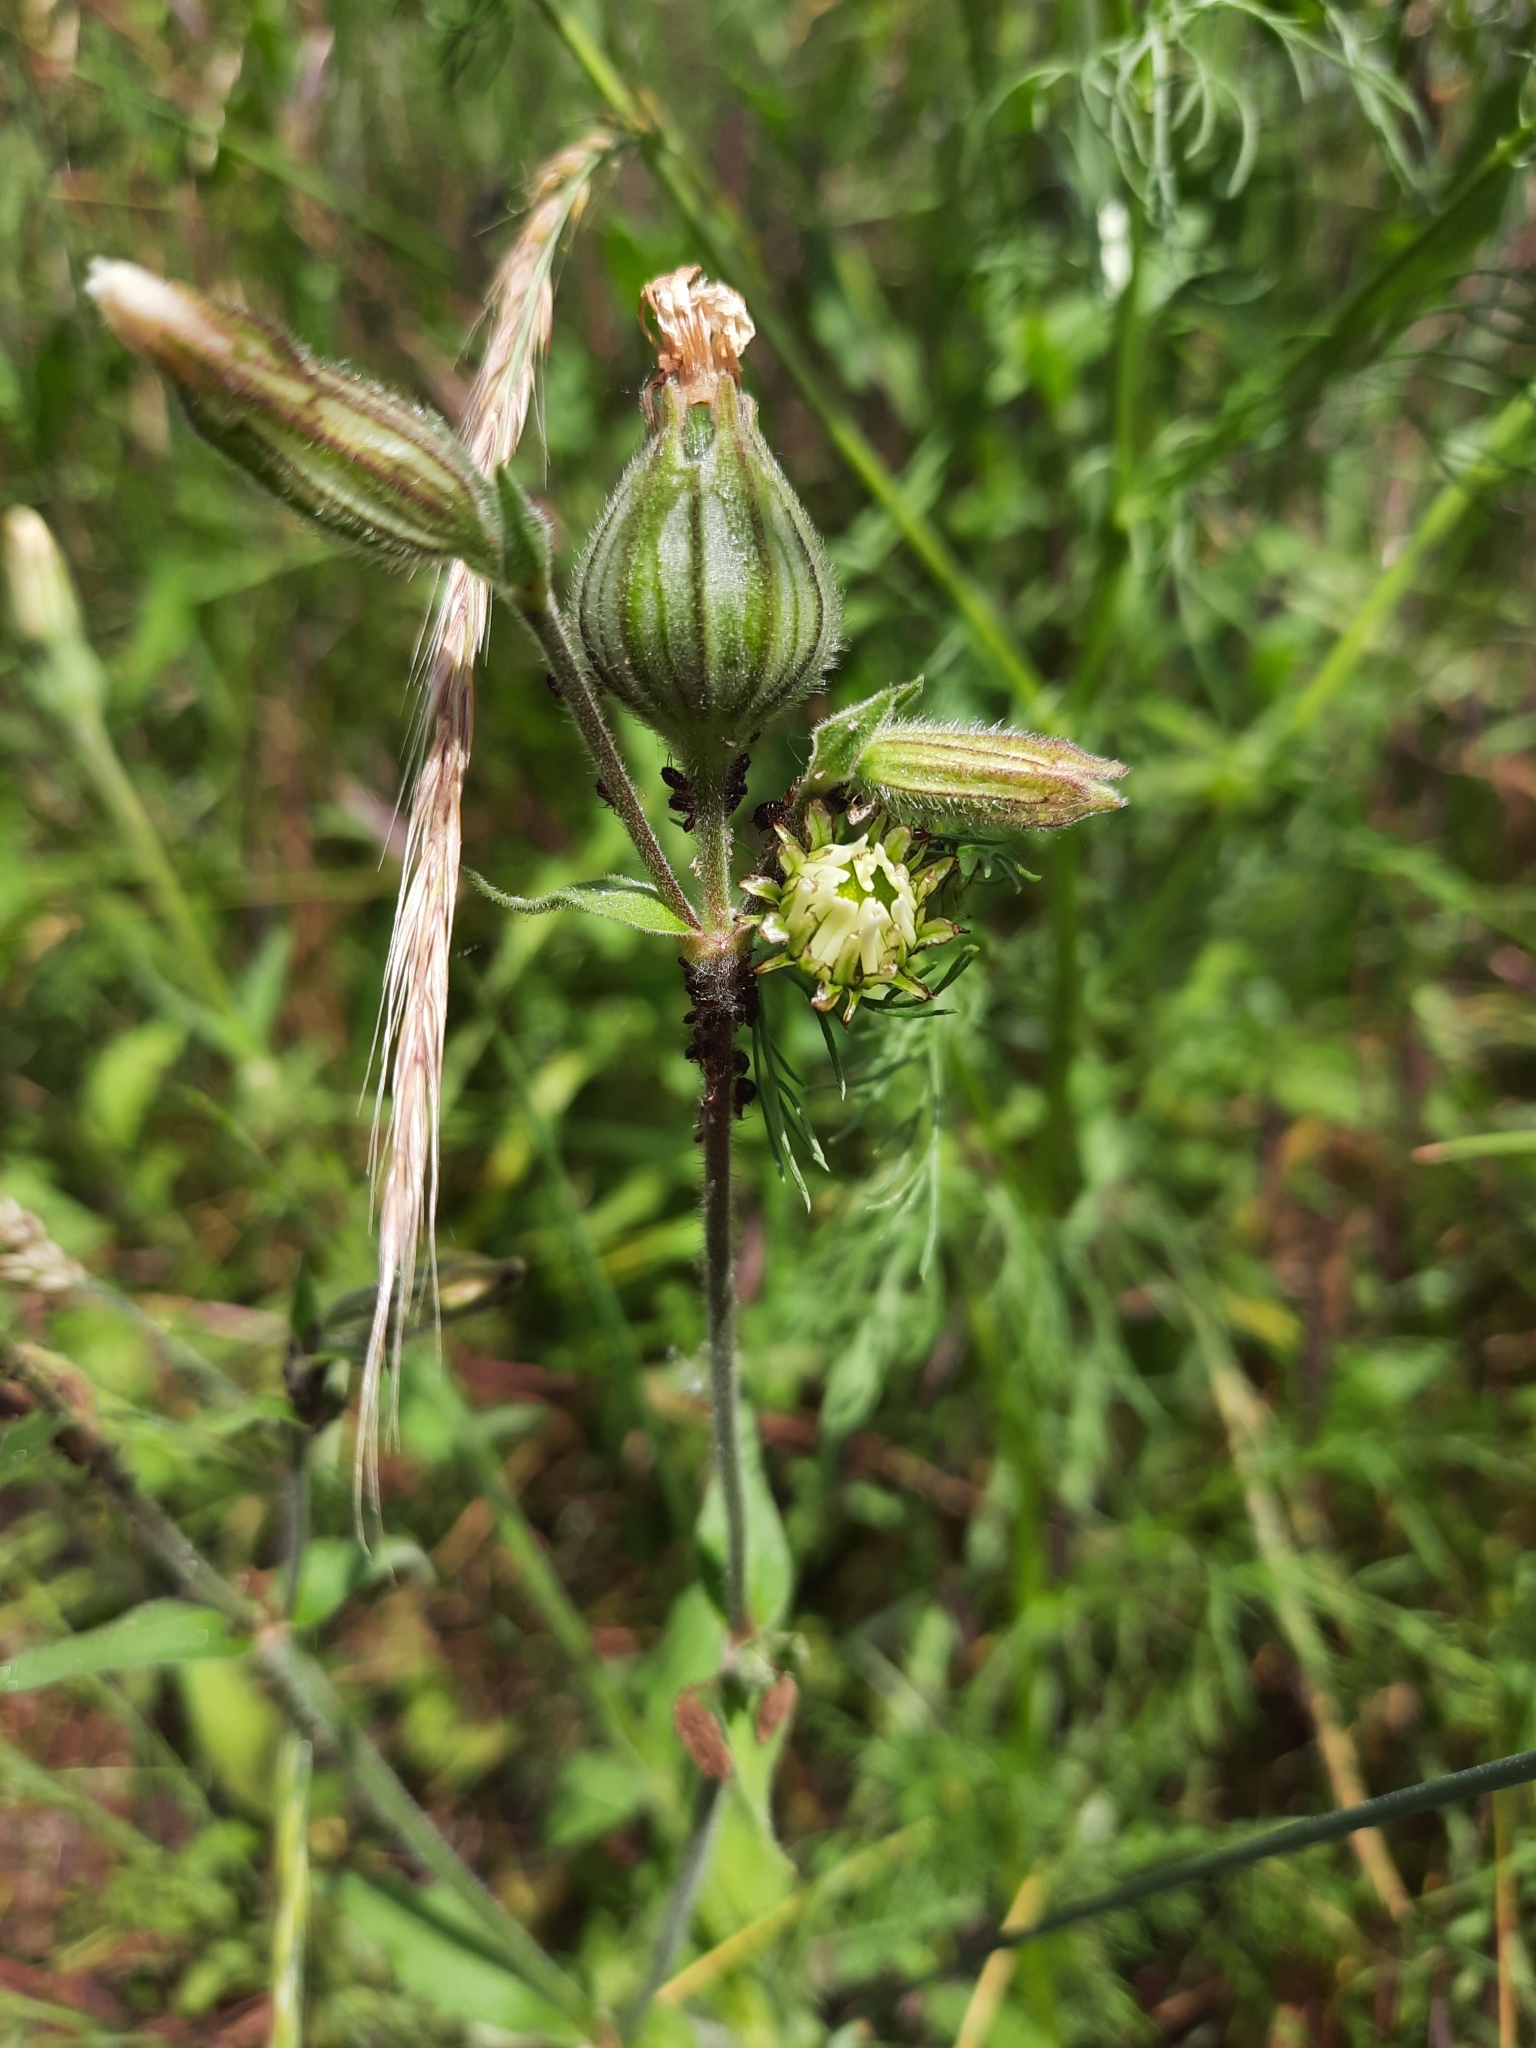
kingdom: Plantae
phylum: Tracheophyta
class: Magnoliopsida
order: Caryophyllales
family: Caryophyllaceae
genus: Silene
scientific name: Silene latifolia
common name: White campion
